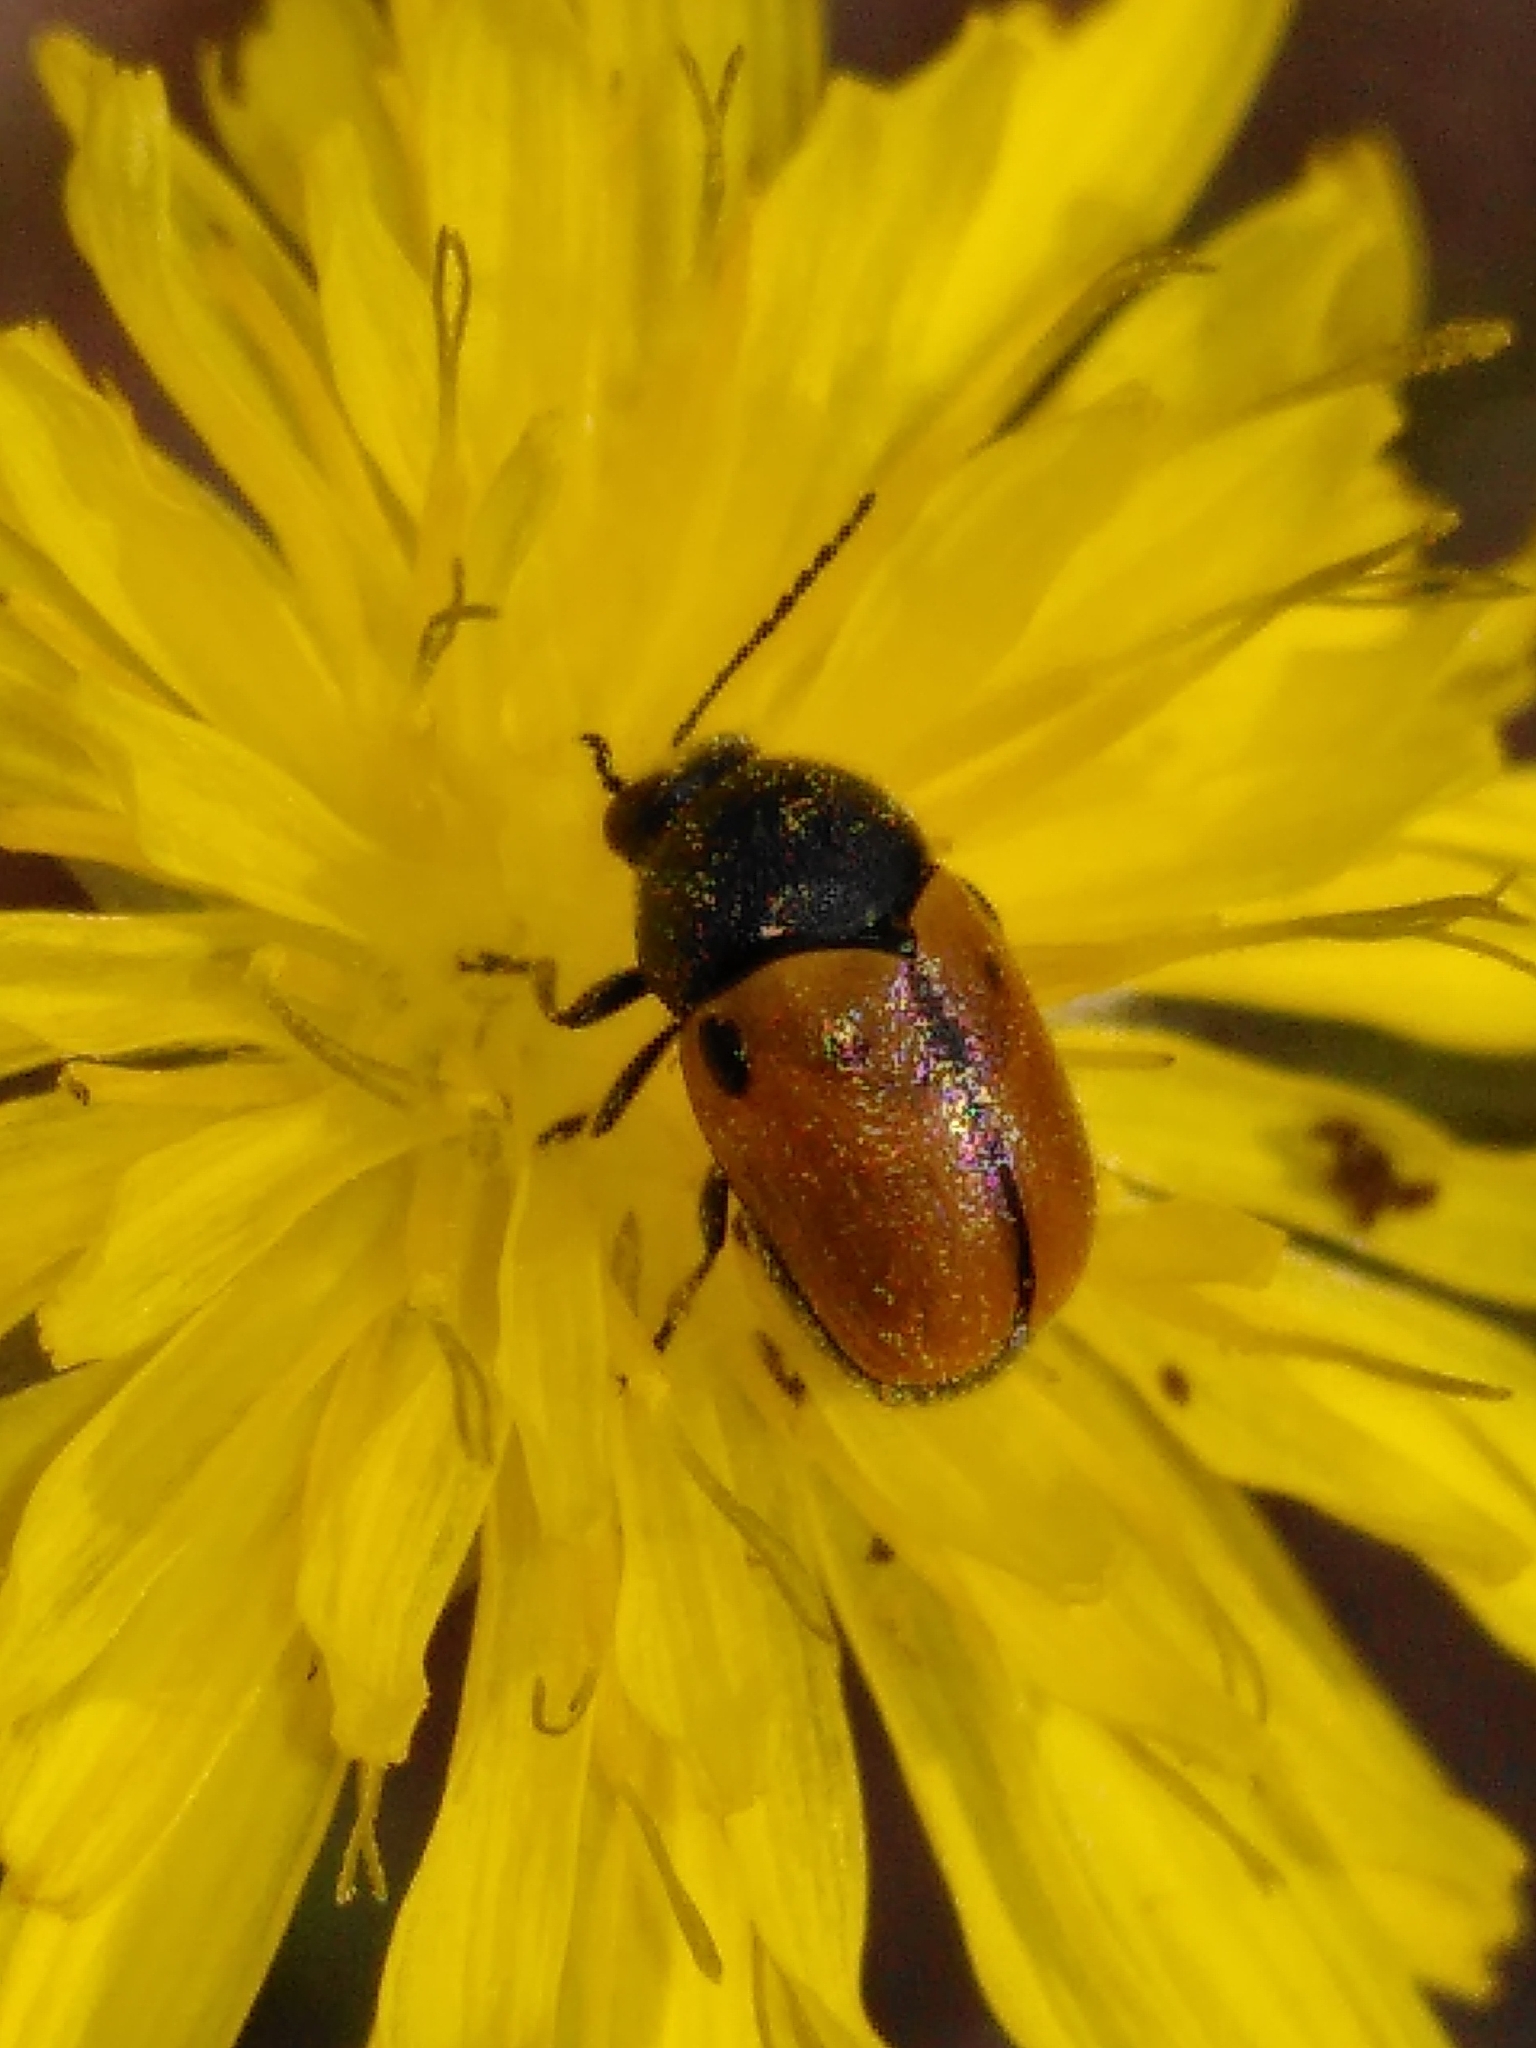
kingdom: Animalia
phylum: Arthropoda
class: Insecta
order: Coleoptera
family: Chrysomelidae
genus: Cryptocephalus
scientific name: Cryptocephalus rugicollis
